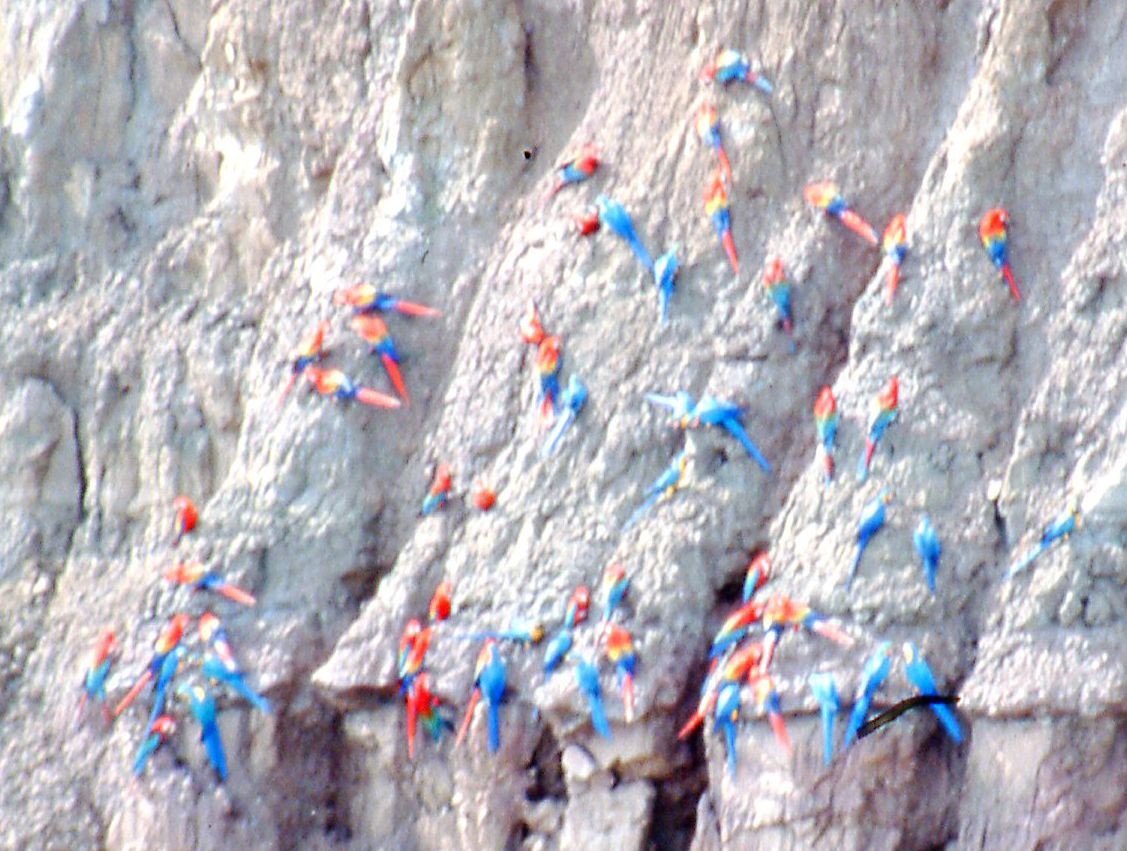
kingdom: Animalia
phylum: Chordata
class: Aves
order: Psittaciformes
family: Psittacidae
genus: Ara
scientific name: Ara macao
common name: Scarlet macaw
